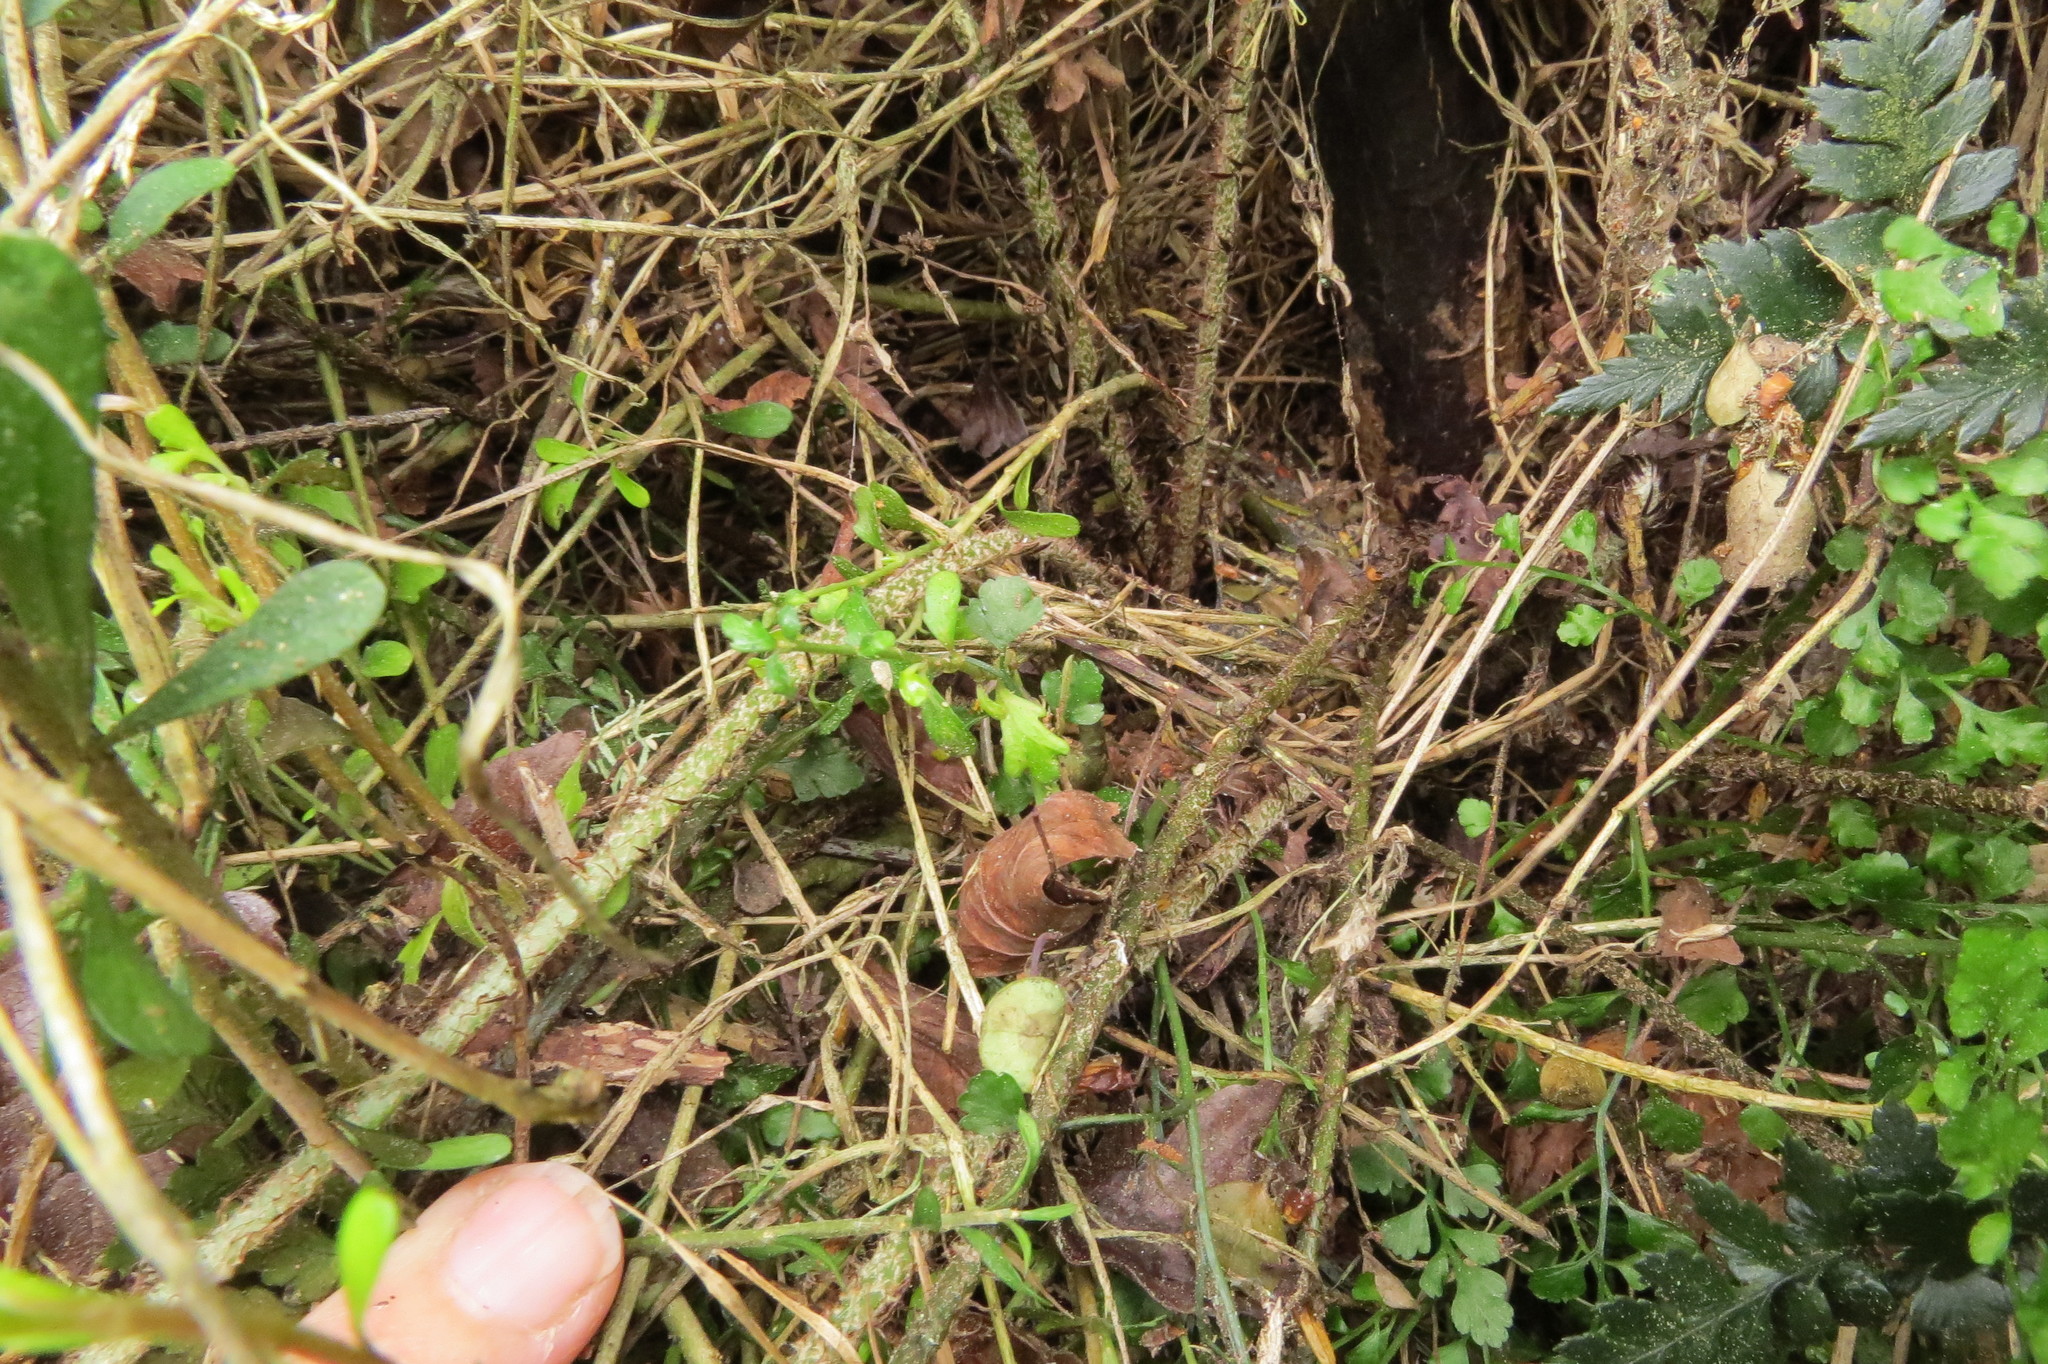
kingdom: Plantae
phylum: Tracheophyta
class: Polypodiopsida
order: Polypodiales
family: Dryopteridaceae
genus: Polystichum
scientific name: Polystichum neozelandicum
